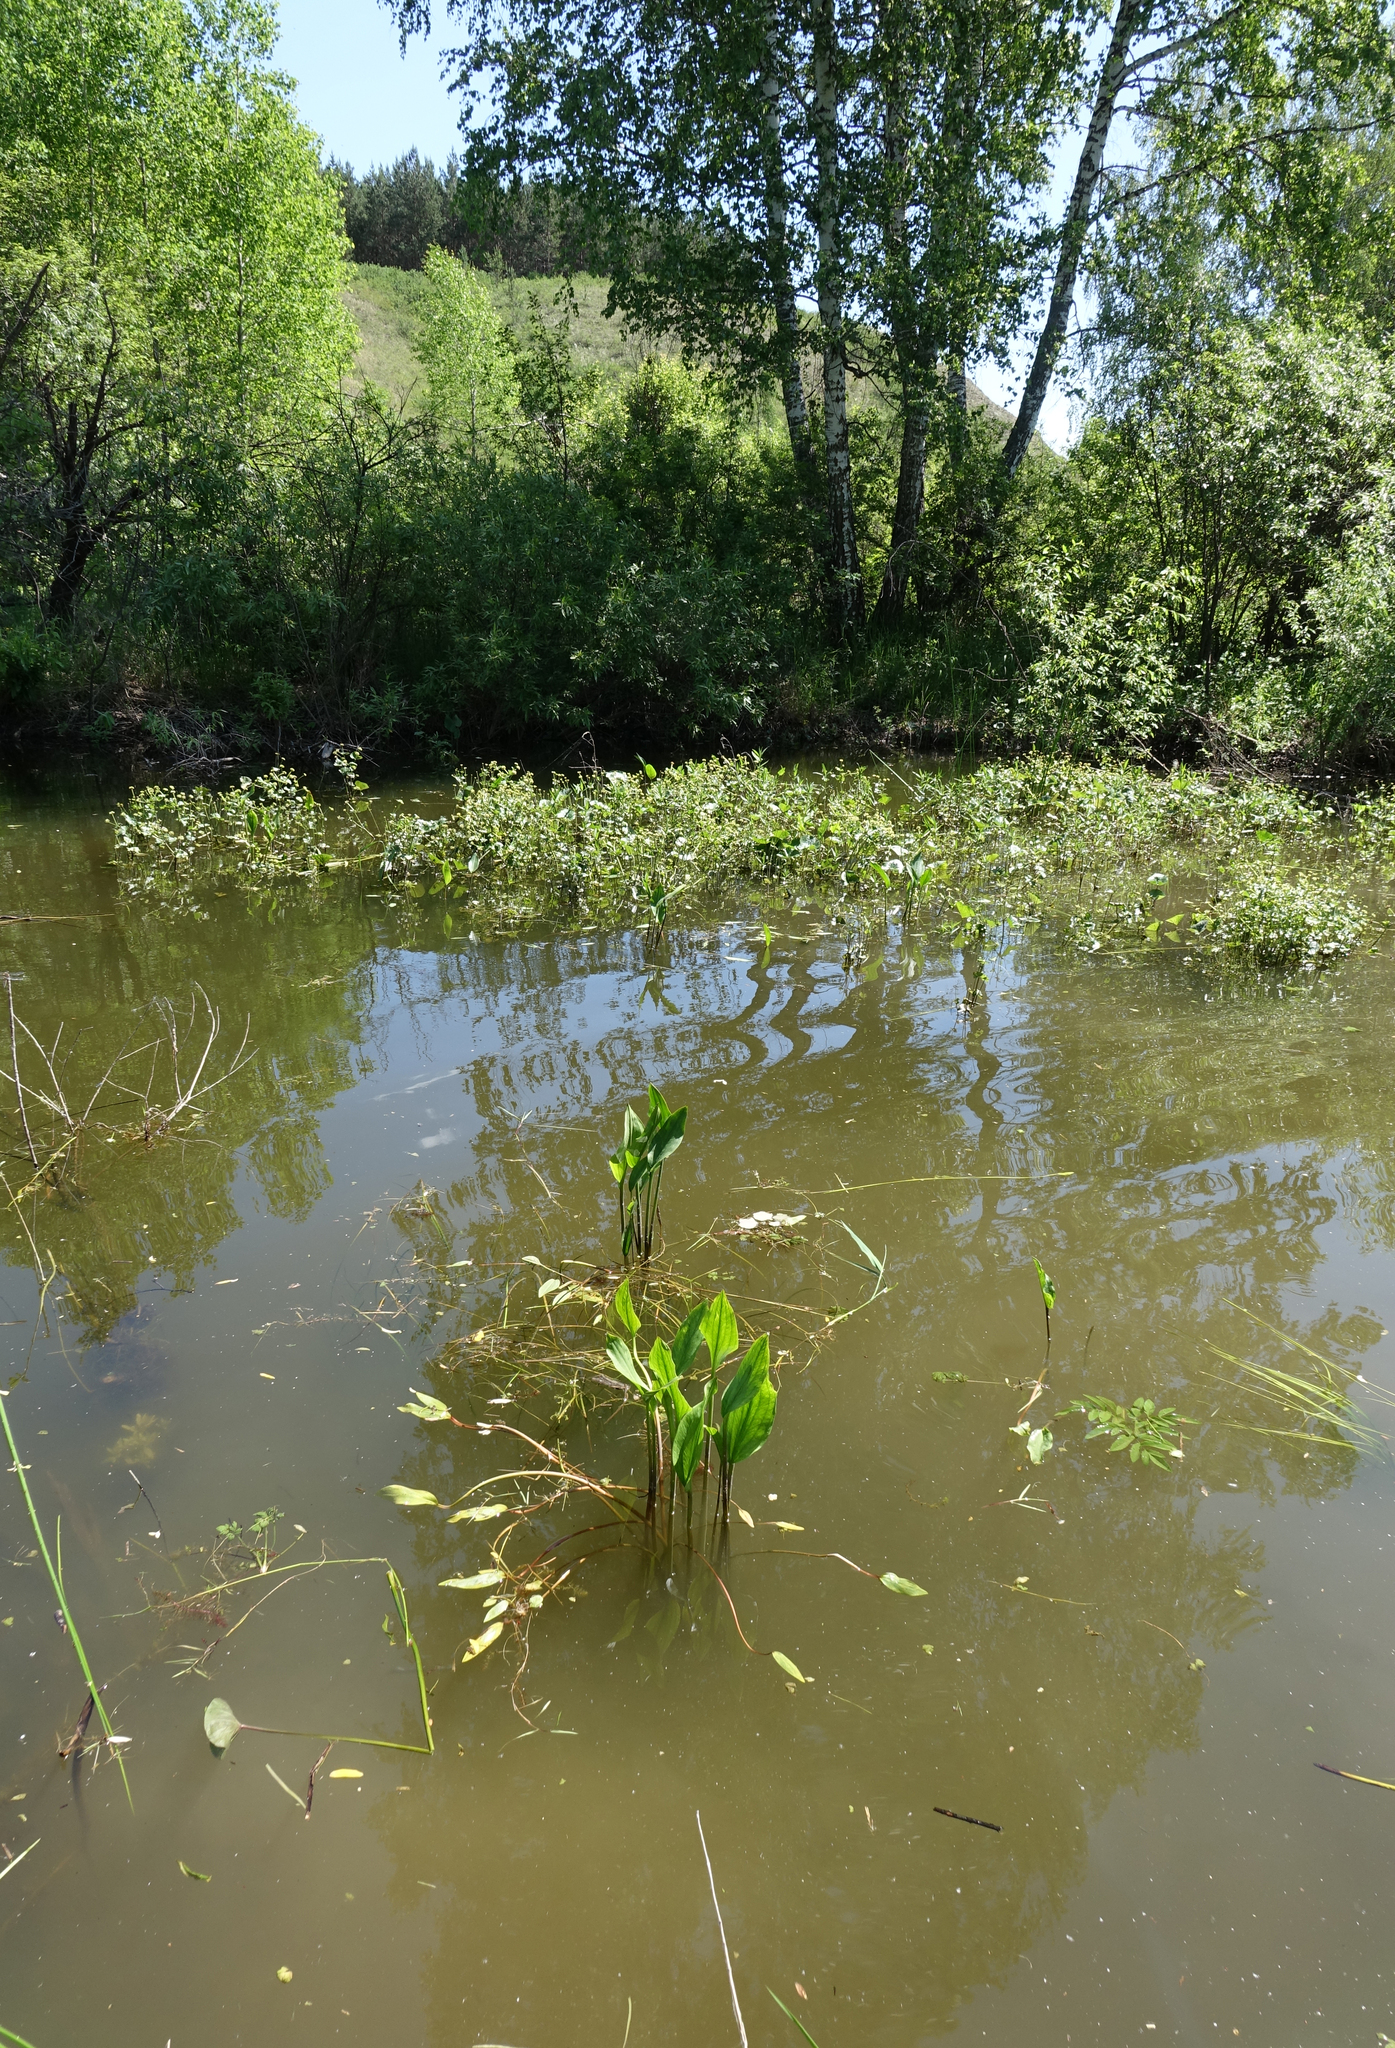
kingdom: Plantae
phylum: Tracheophyta
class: Liliopsida
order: Alismatales
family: Alismataceae
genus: Alisma
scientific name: Alisma plantago-aquatica
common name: Water-plantain
